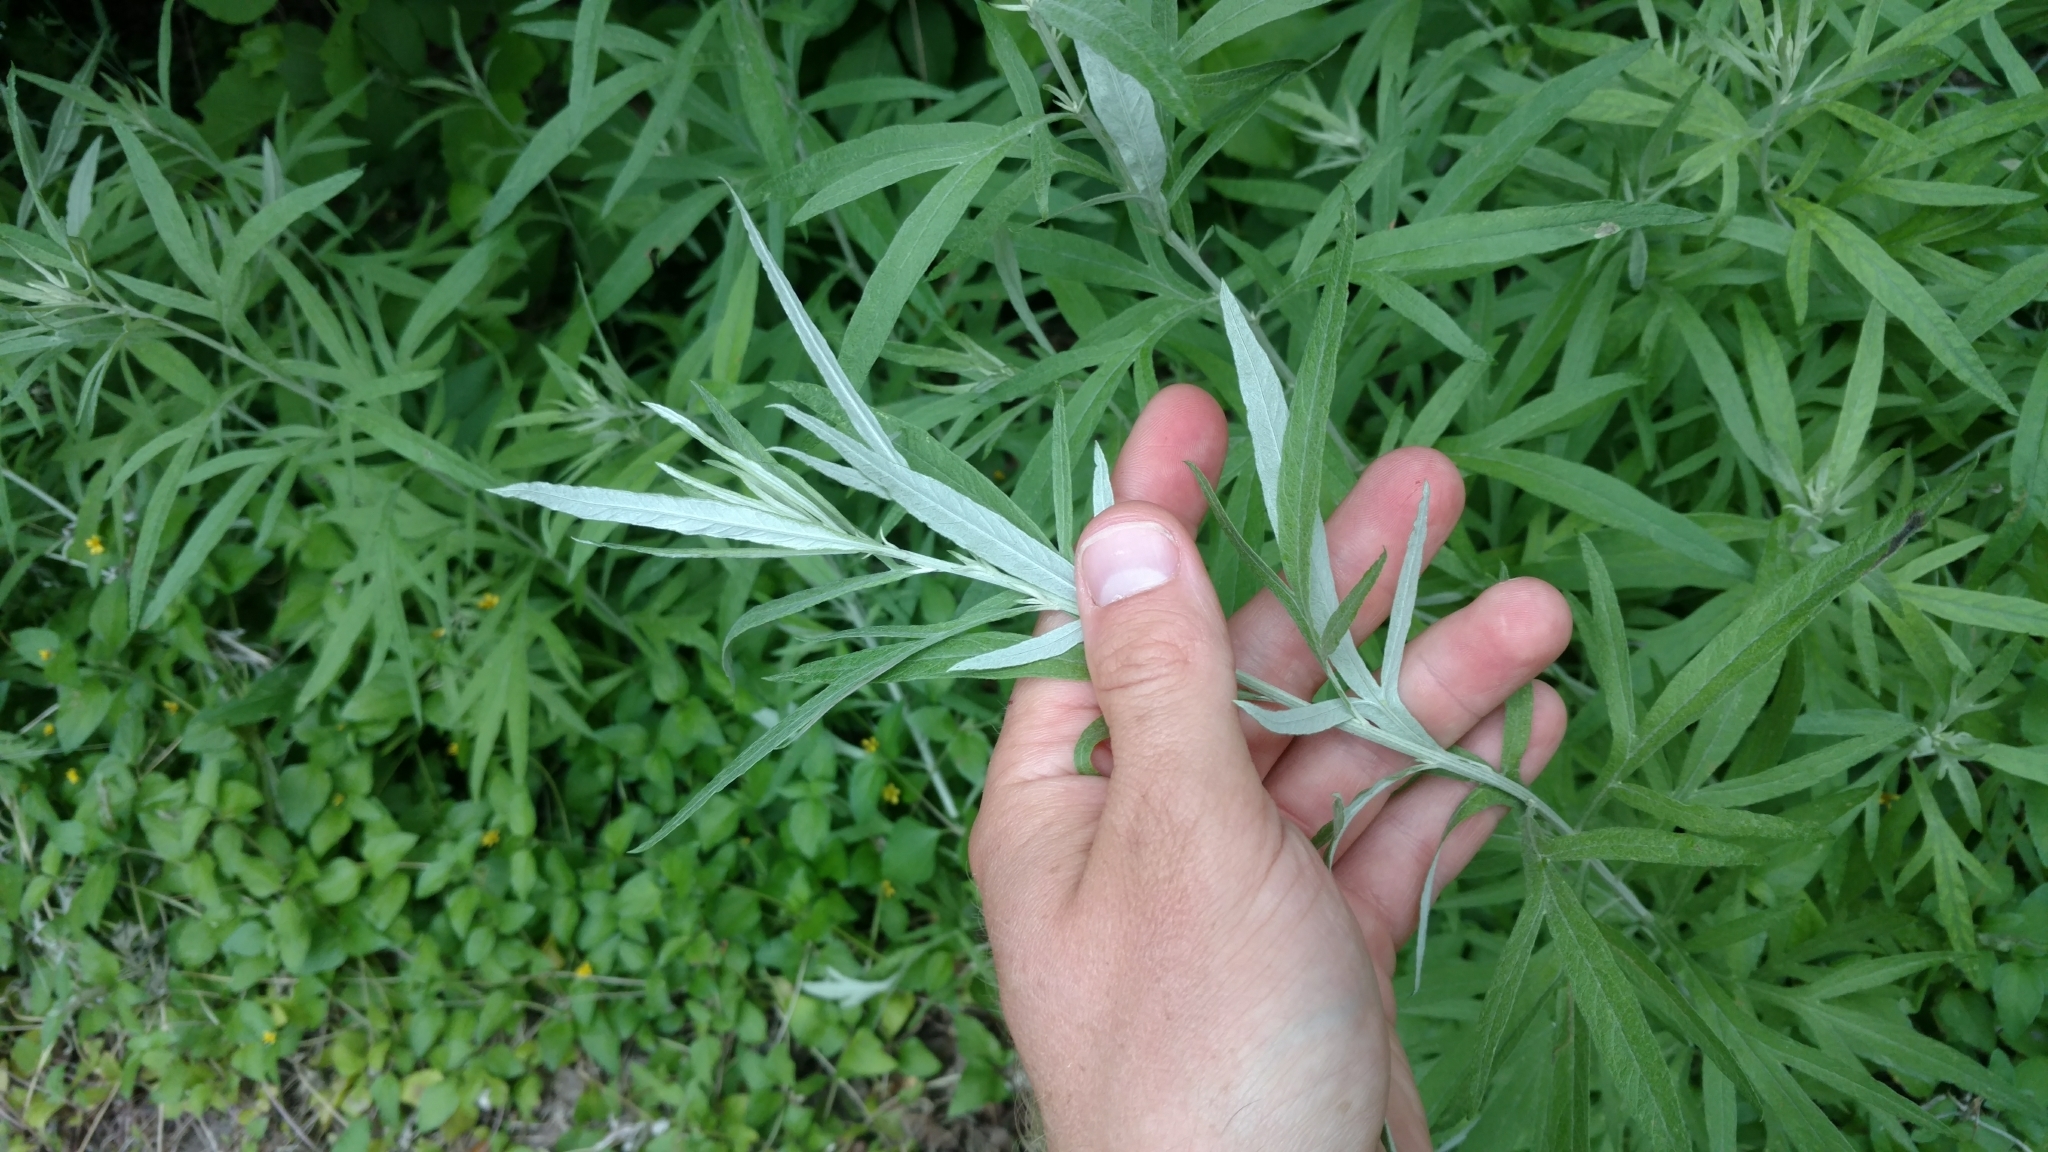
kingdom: Plantae
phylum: Tracheophyta
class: Magnoliopsida
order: Asterales
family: Asteraceae
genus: Artemisia
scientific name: Artemisia ludoviciana
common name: Western mugwort
